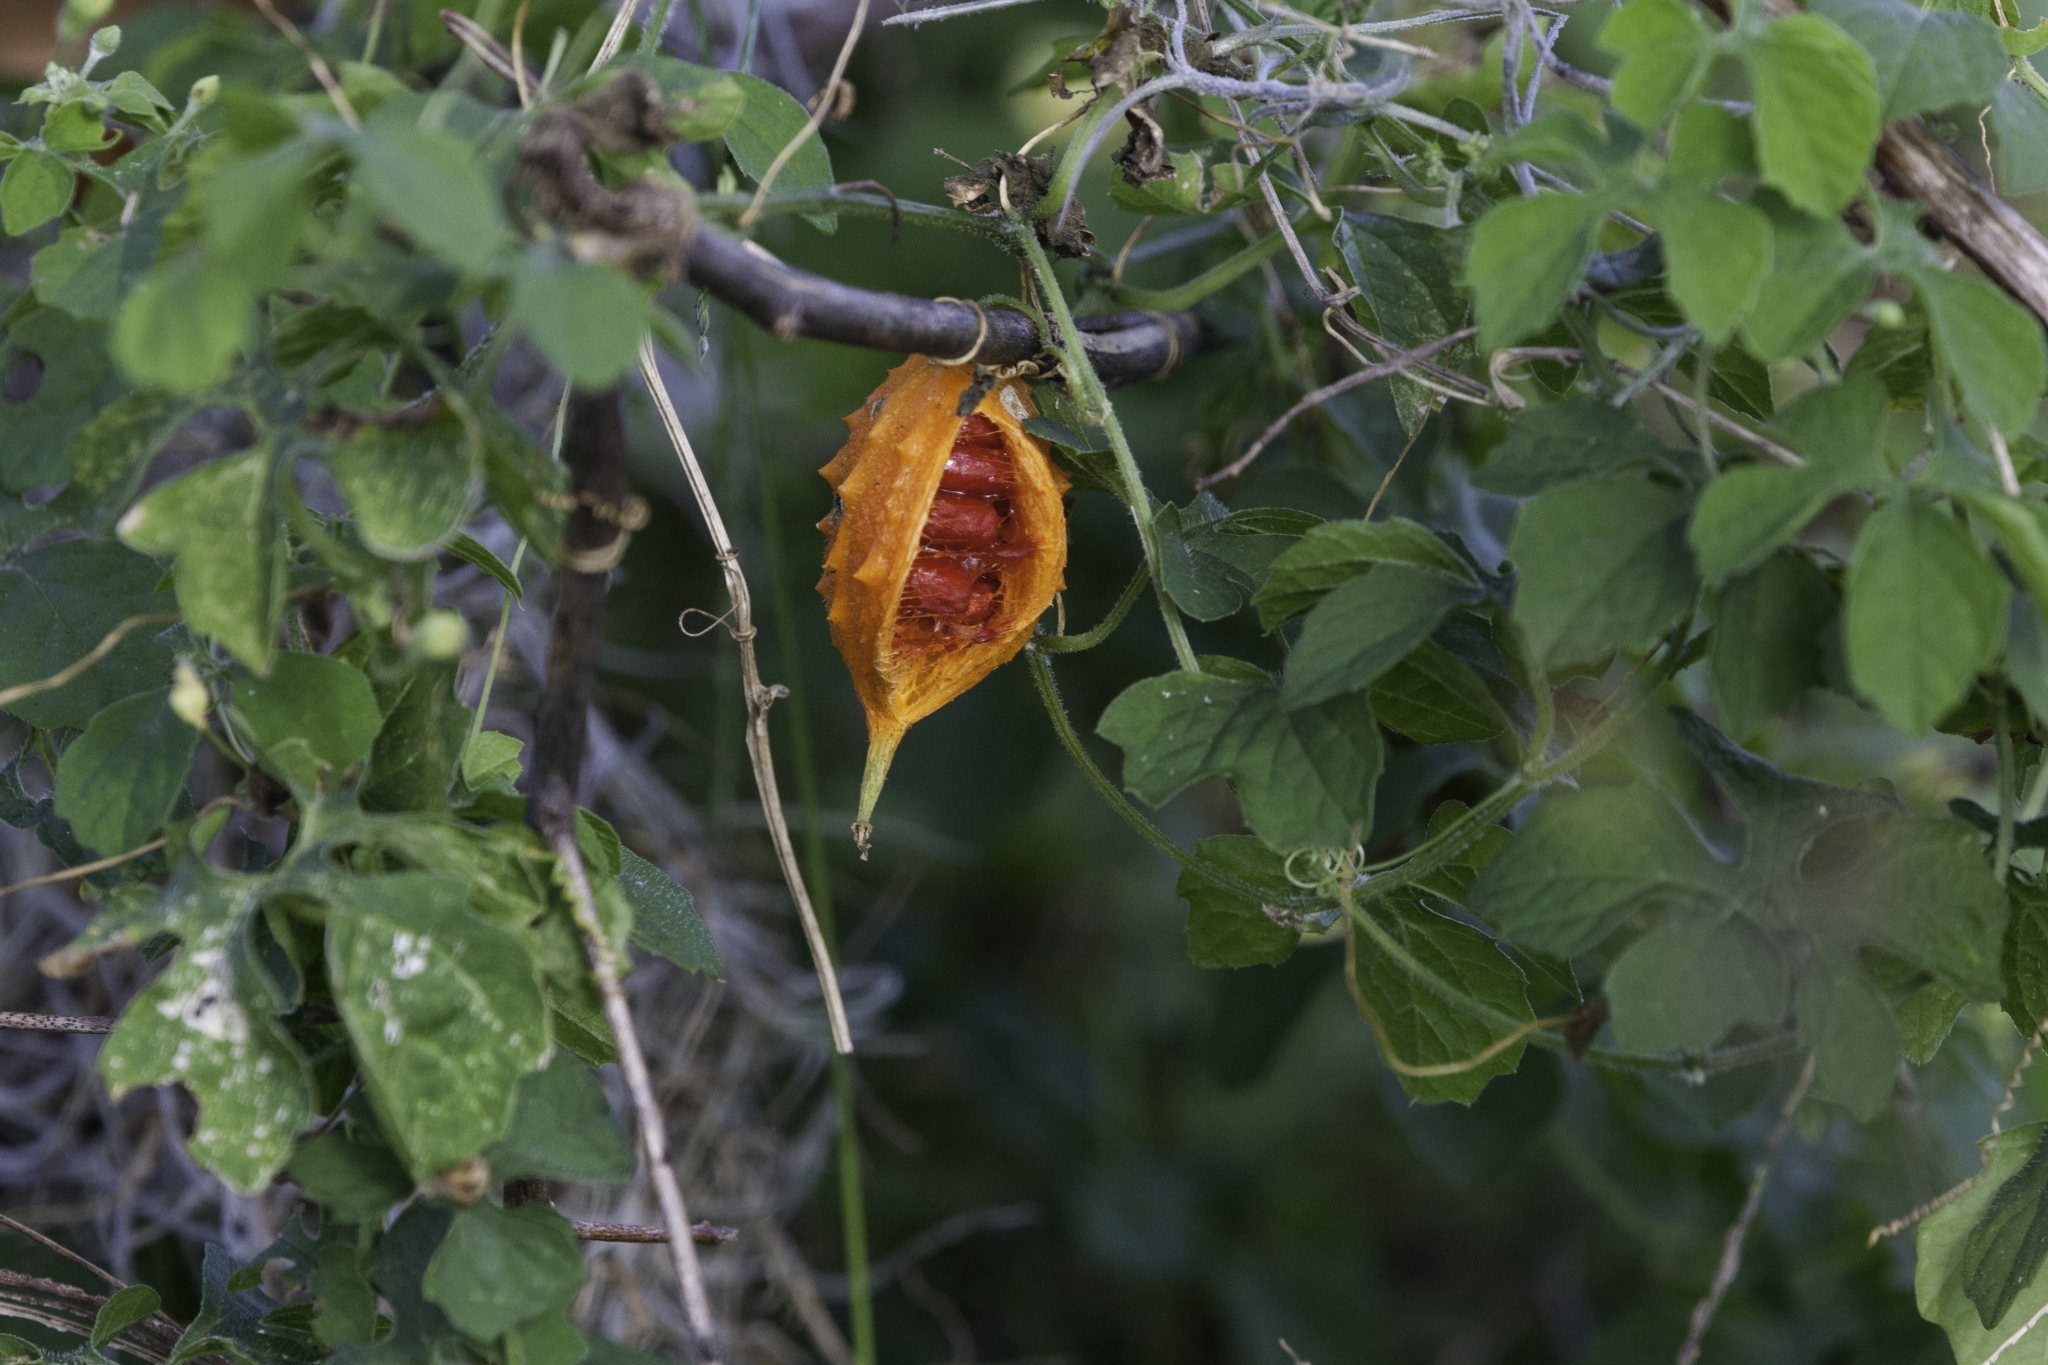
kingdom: Plantae
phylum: Tracheophyta
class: Magnoliopsida
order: Cucurbitales
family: Cucurbitaceae
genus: Momordica
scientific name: Momordica charantia
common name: Balsampear
